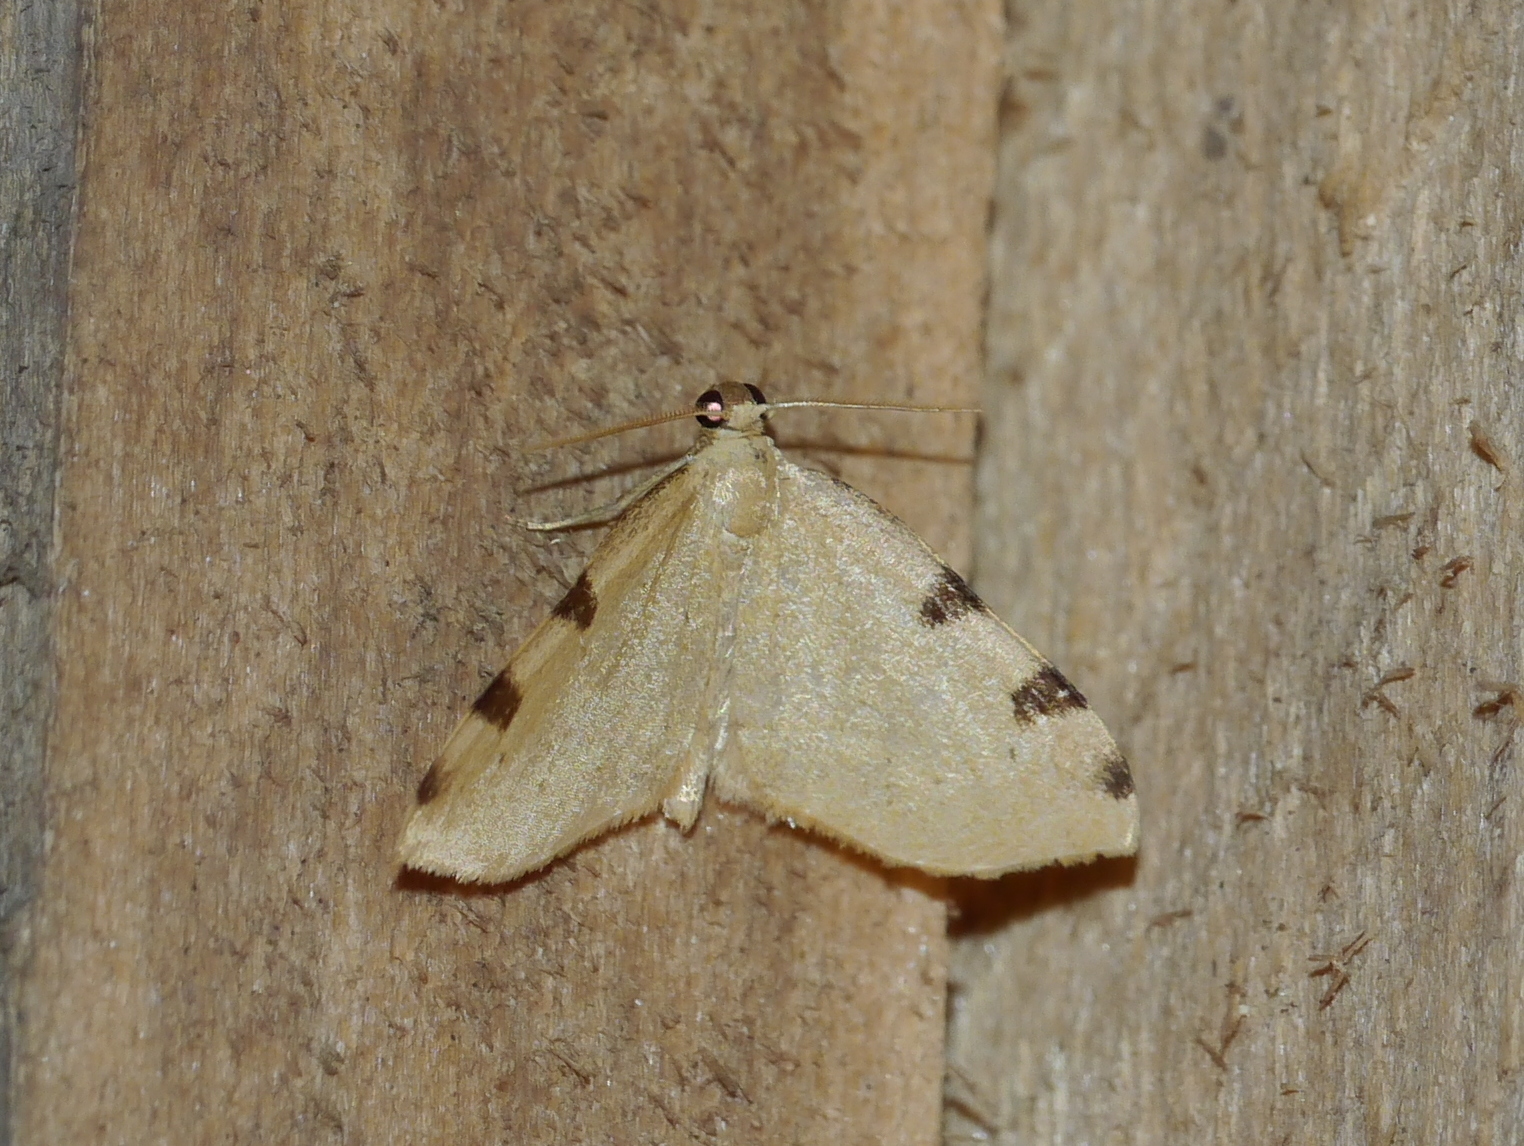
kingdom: Animalia
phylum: Arthropoda
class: Insecta
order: Lepidoptera
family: Geometridae
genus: Heterophleps
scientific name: Heterophleps triguttaria
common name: Three-spotted fillip
